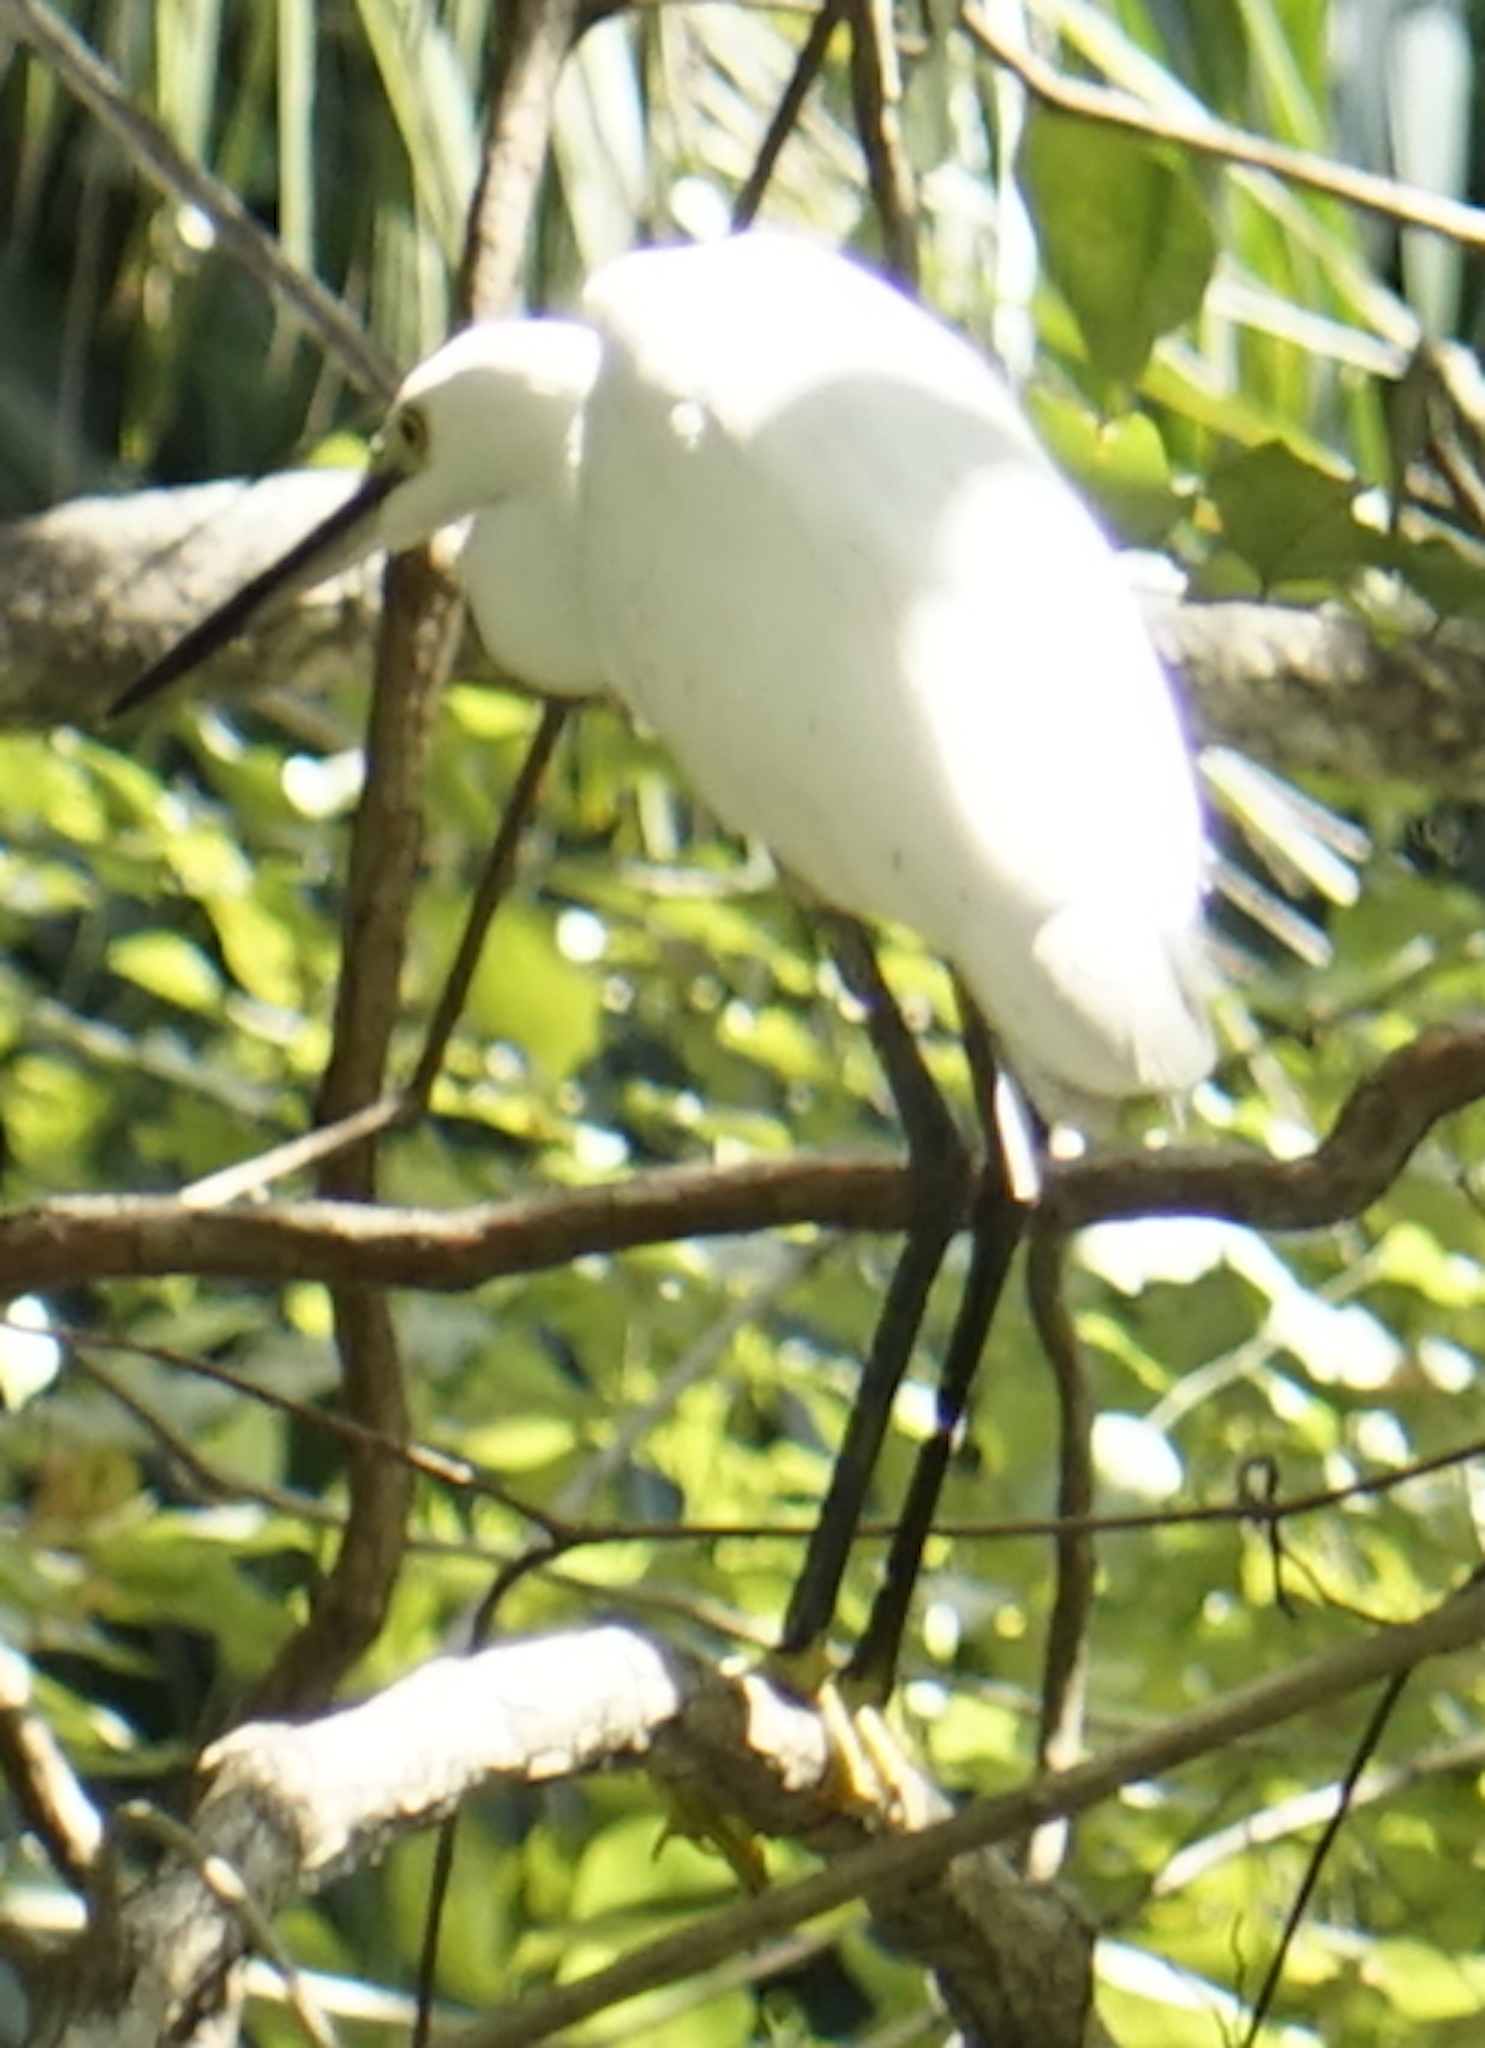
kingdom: Animalia
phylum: Chordata
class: Aves
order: Pelecaniformes
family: Ardeidae
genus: Egretta
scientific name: Egretta garzetta
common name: Little egret
